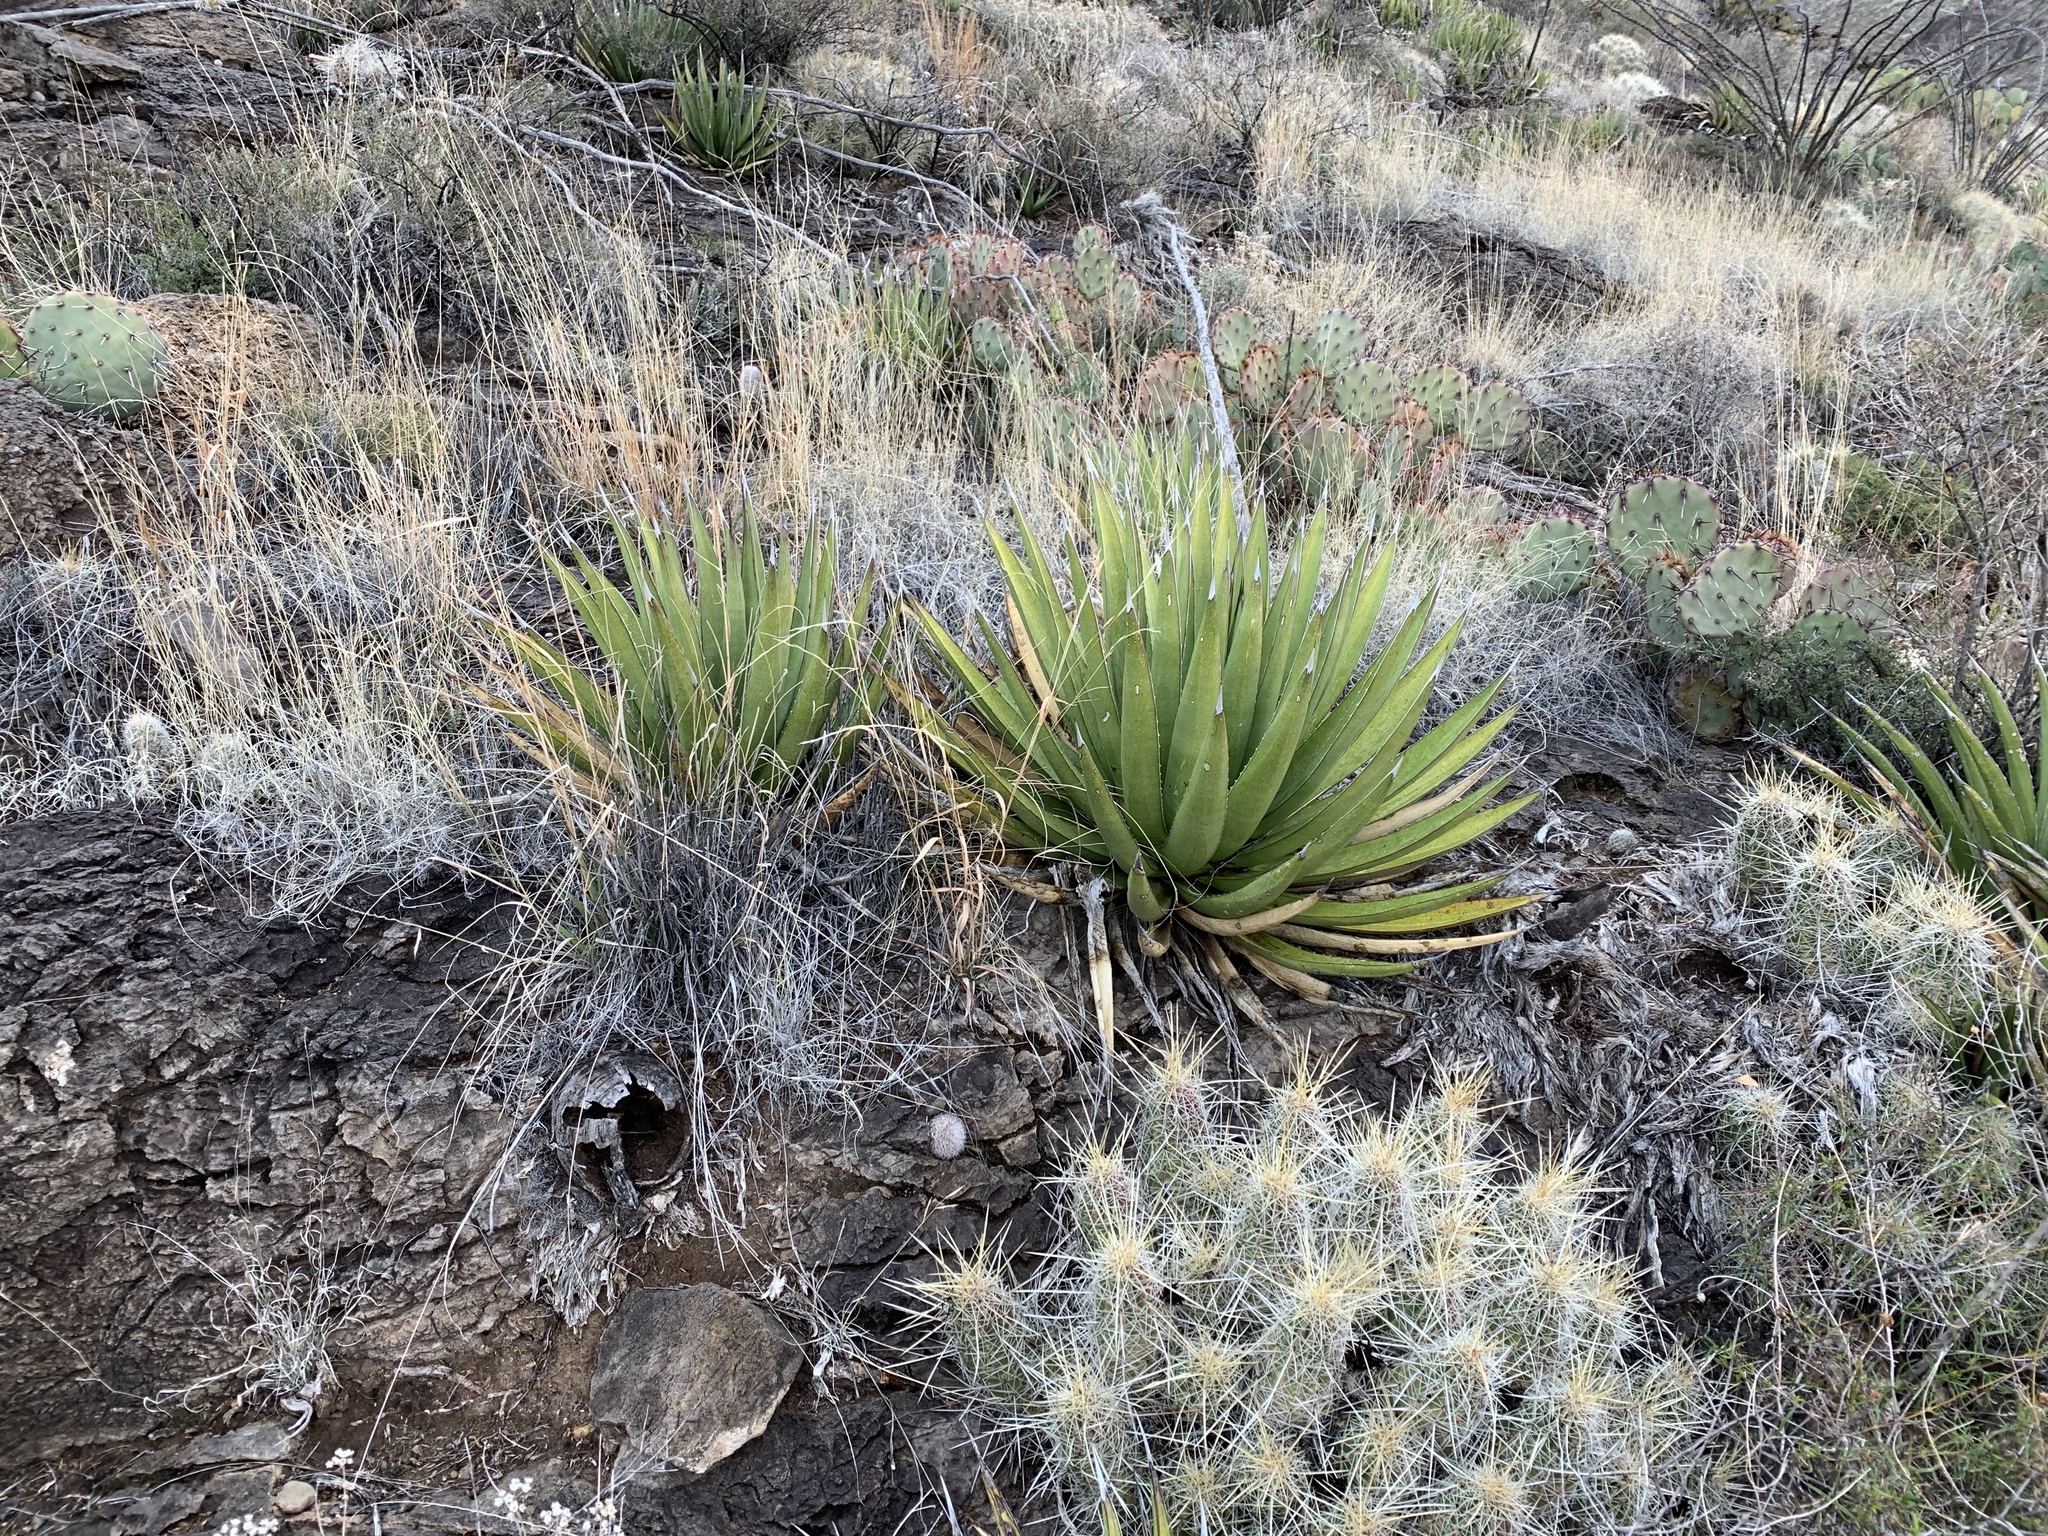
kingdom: Plantae
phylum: Tracheophyta
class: Liliopsida
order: Asparagales
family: Asparagaceae
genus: Agave
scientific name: Agave lechuguilla
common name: Lecheguilla agave
